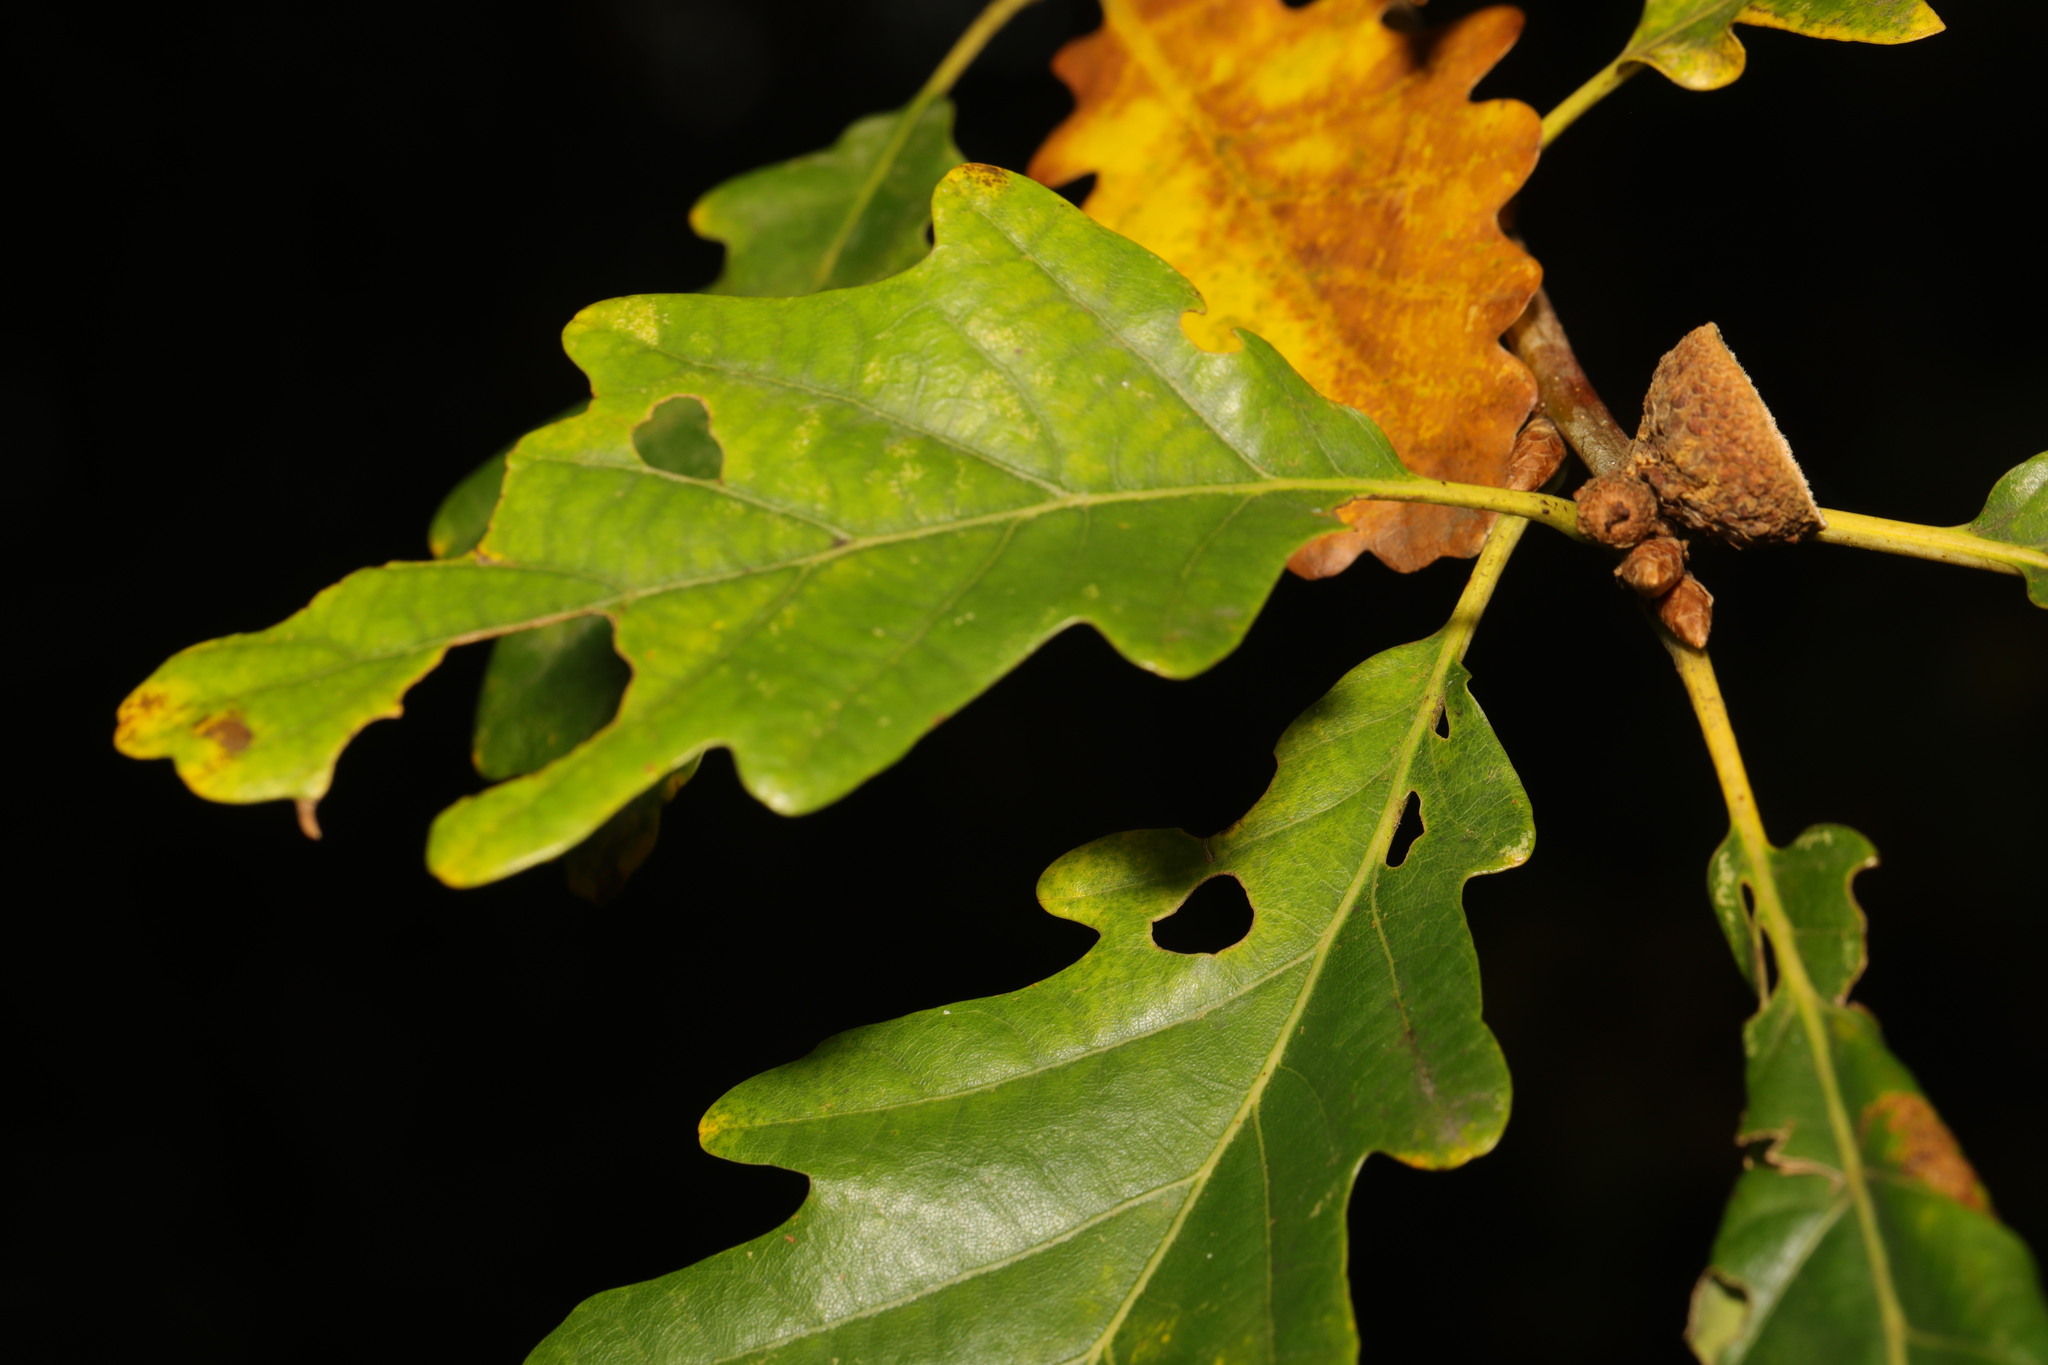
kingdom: Plantae
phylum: Tracheophyta
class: Magnoliopsida
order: Fagales
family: Fagaceae
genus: Quercus
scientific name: Quercus petraea
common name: Sessile oak
